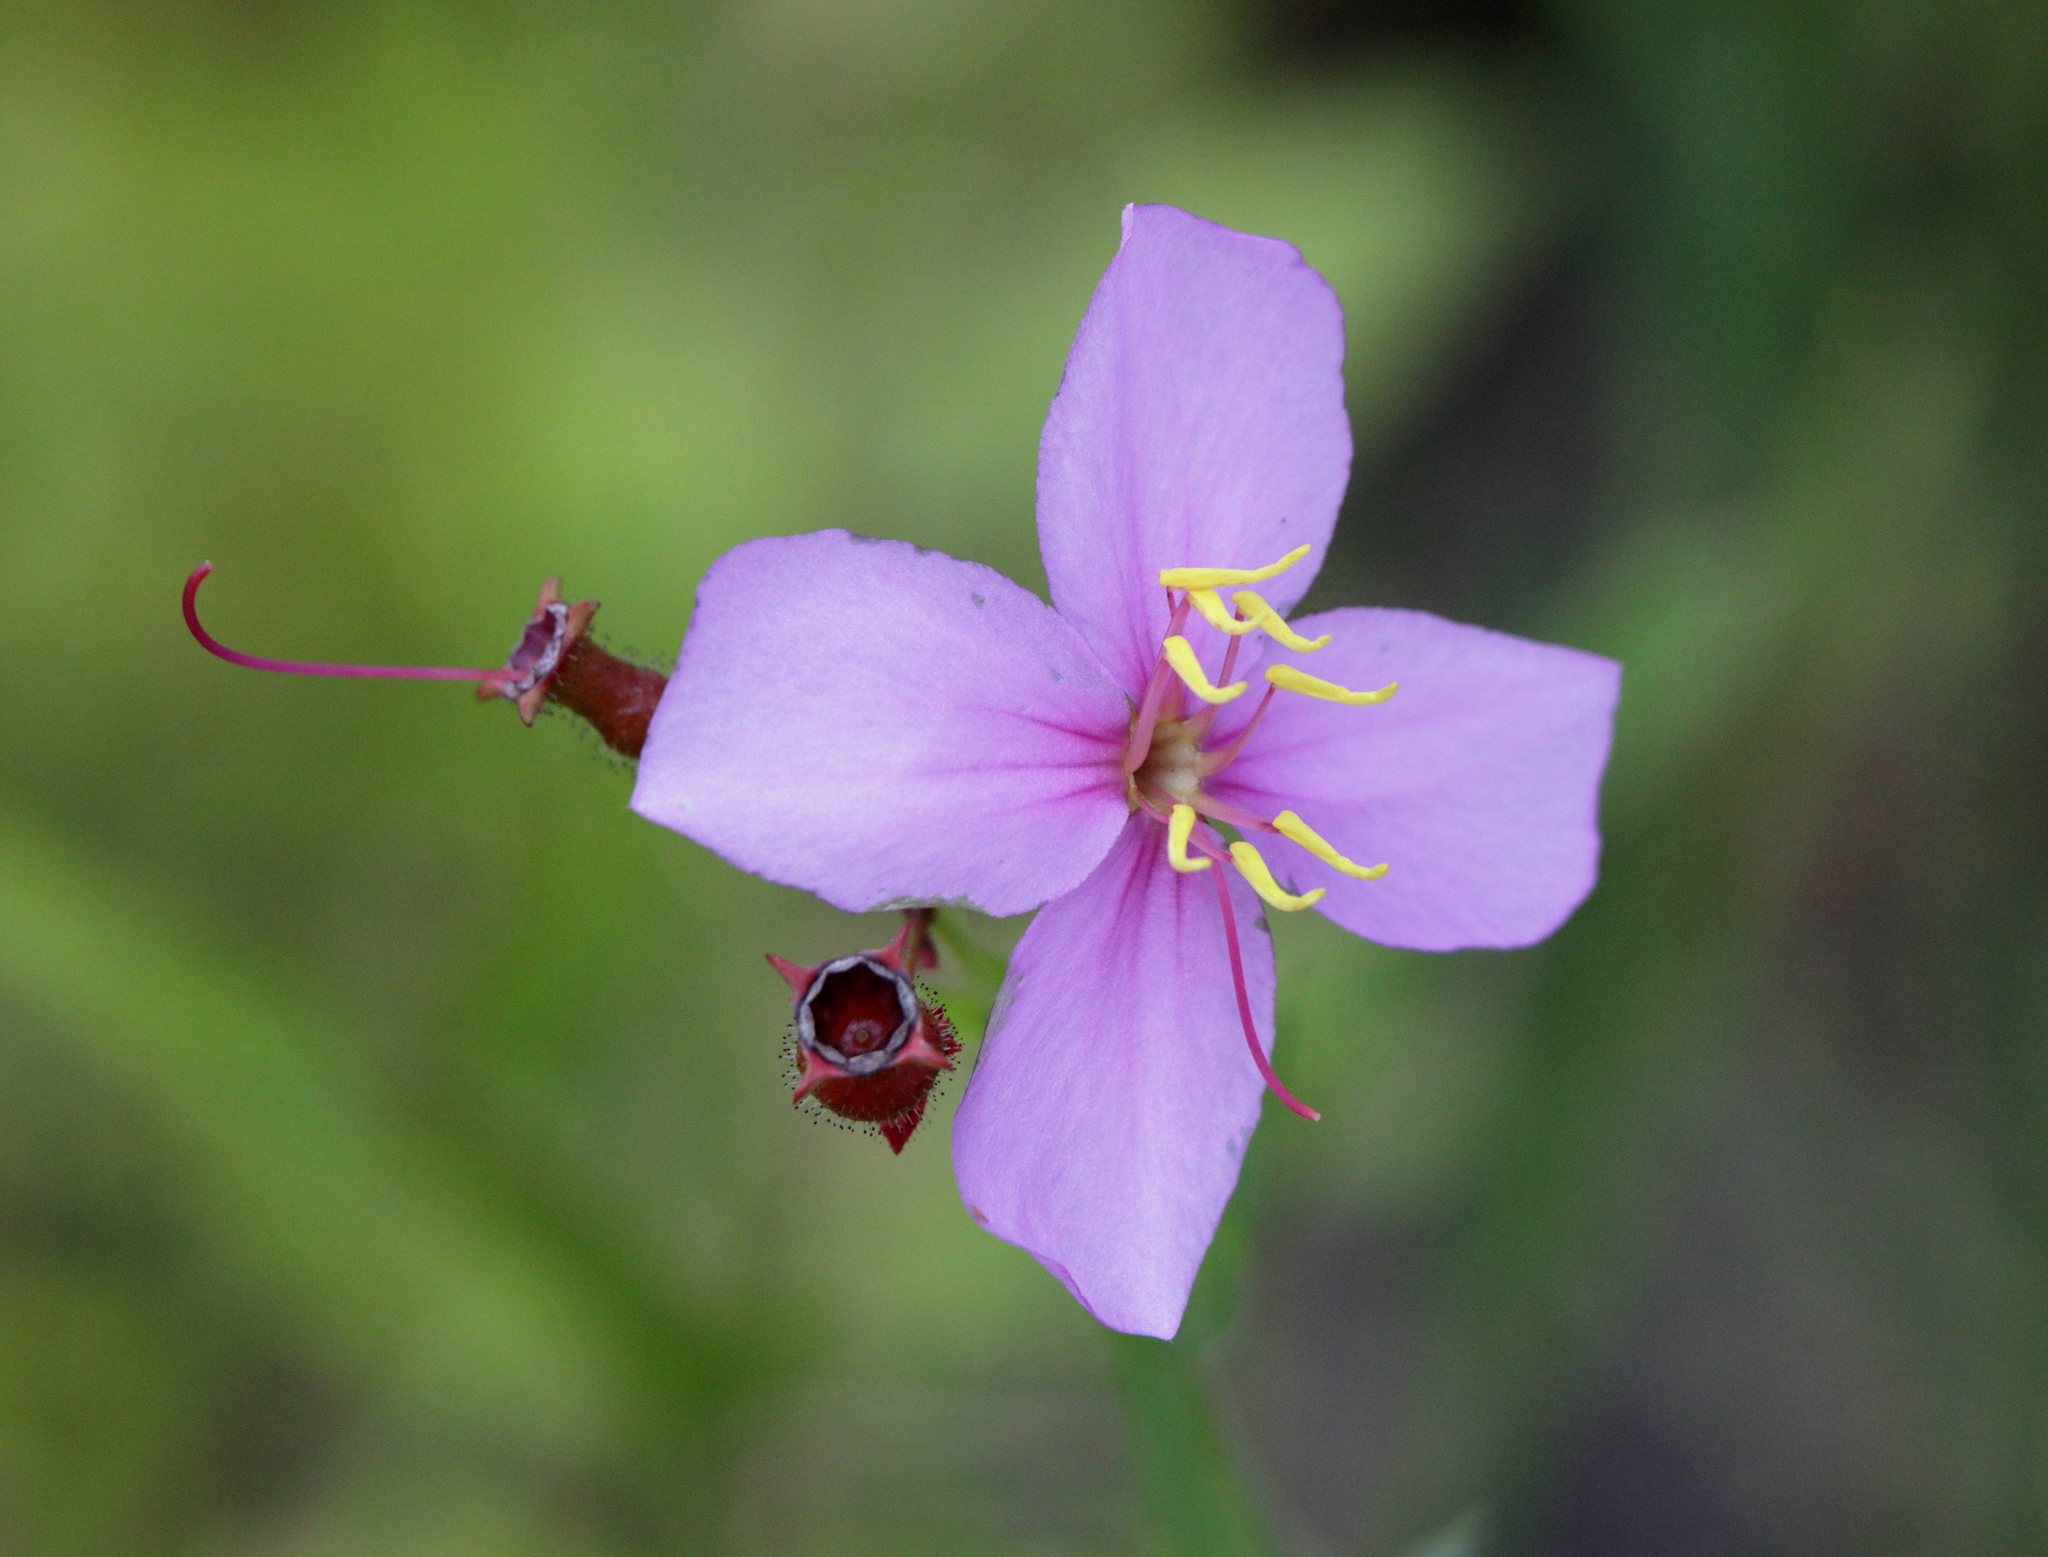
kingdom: Plantae
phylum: Tracheophyta
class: Magnoliopsida
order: Myrtales
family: Melastomataceae
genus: Rhexia
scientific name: Rhexia alifanus
